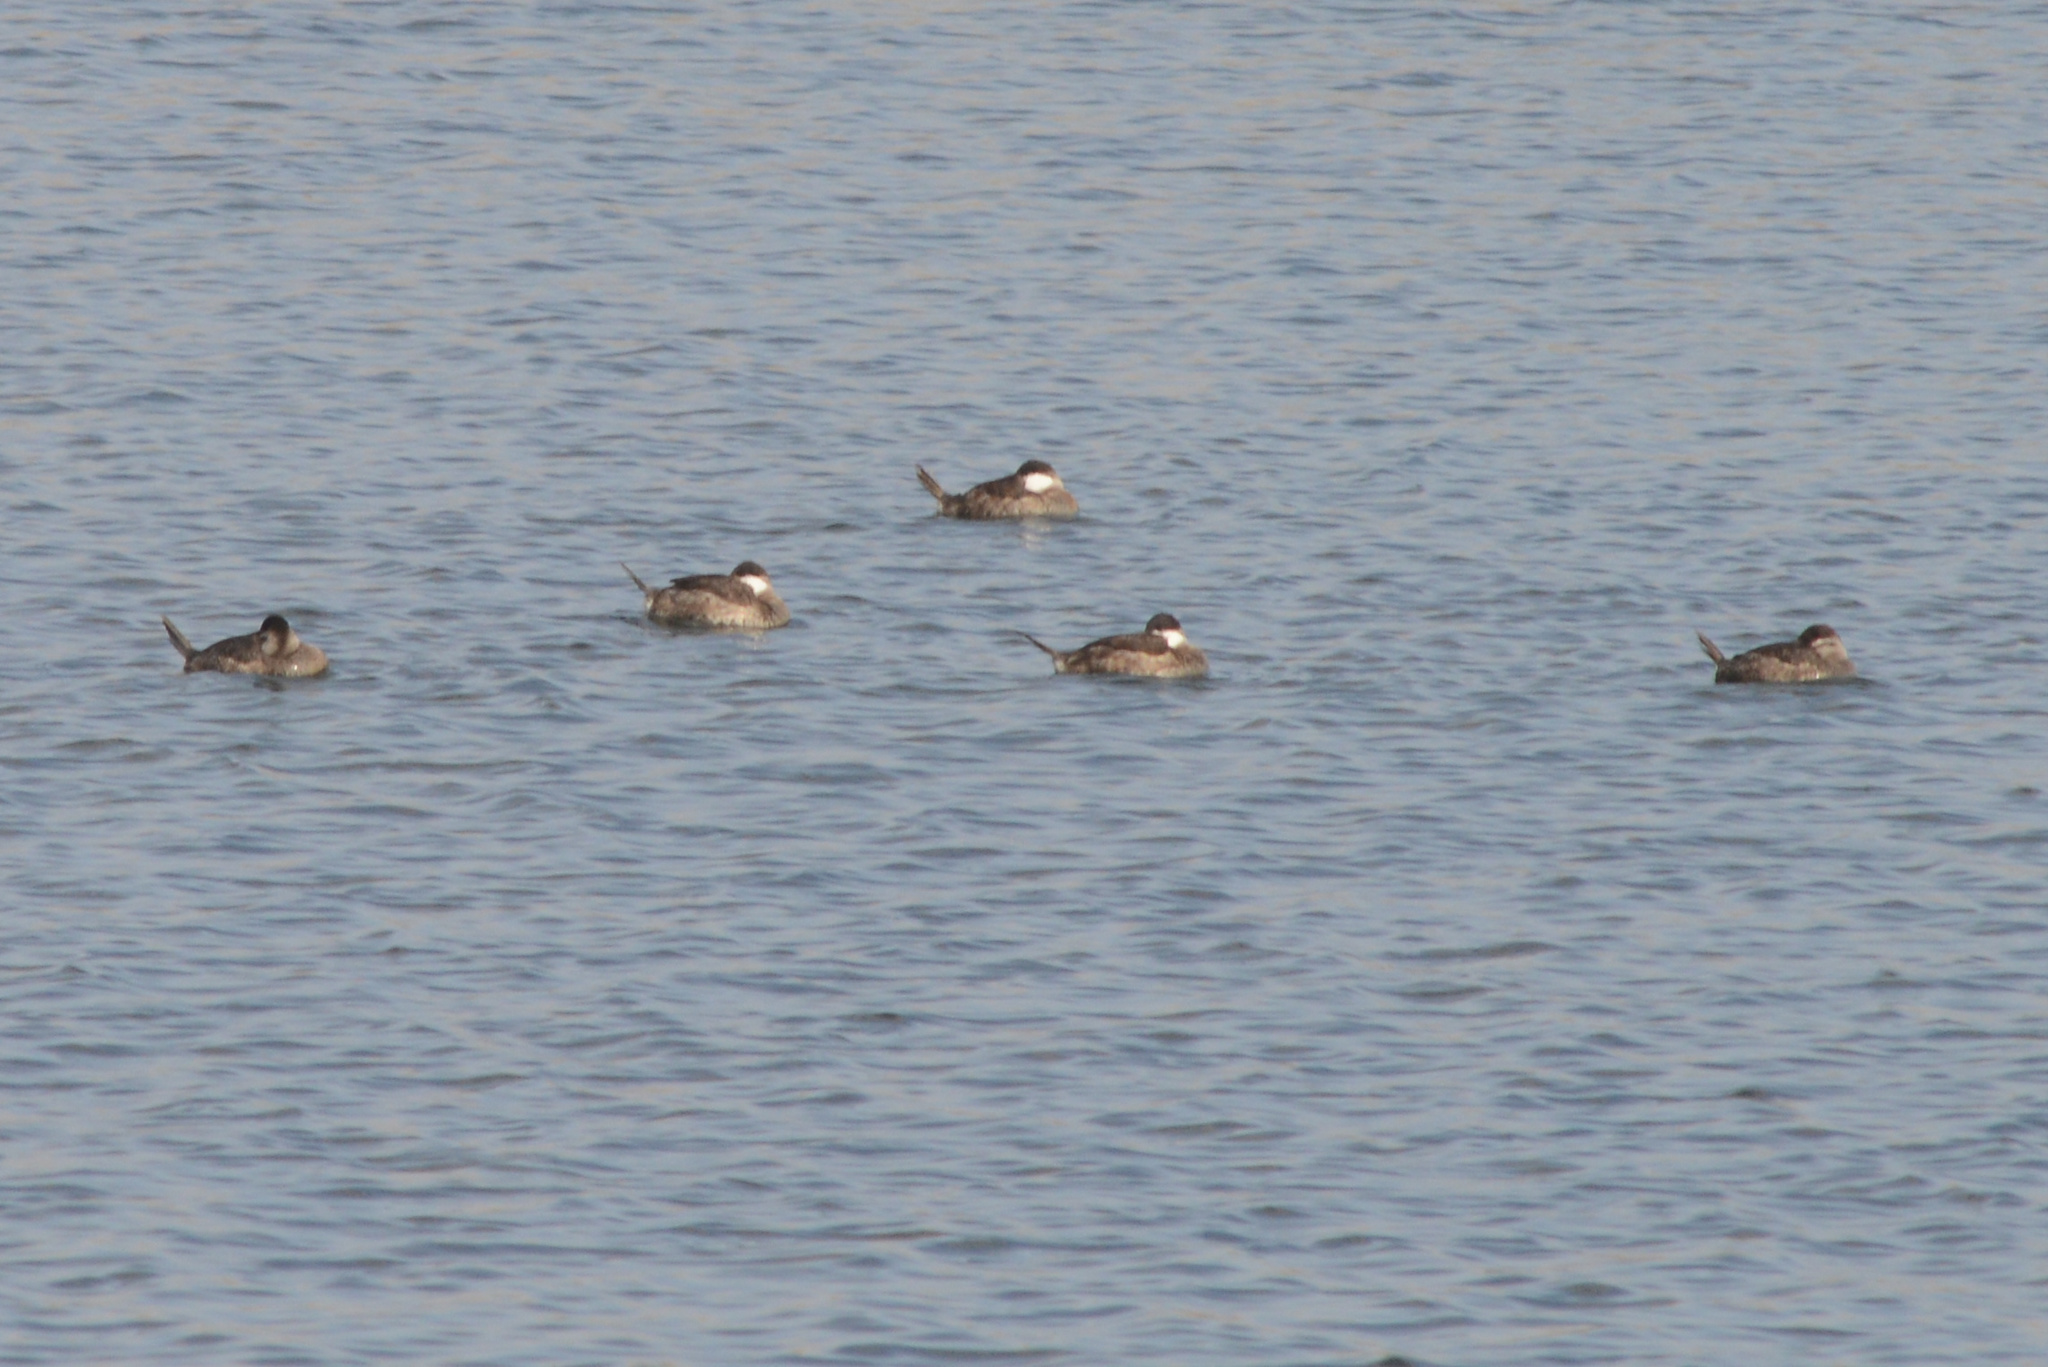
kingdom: Animalia
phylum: Chordata
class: Aves
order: Anseriformes
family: Anatidae
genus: Oxyura
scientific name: Oxyura jamaicensis
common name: Ruddy duck
